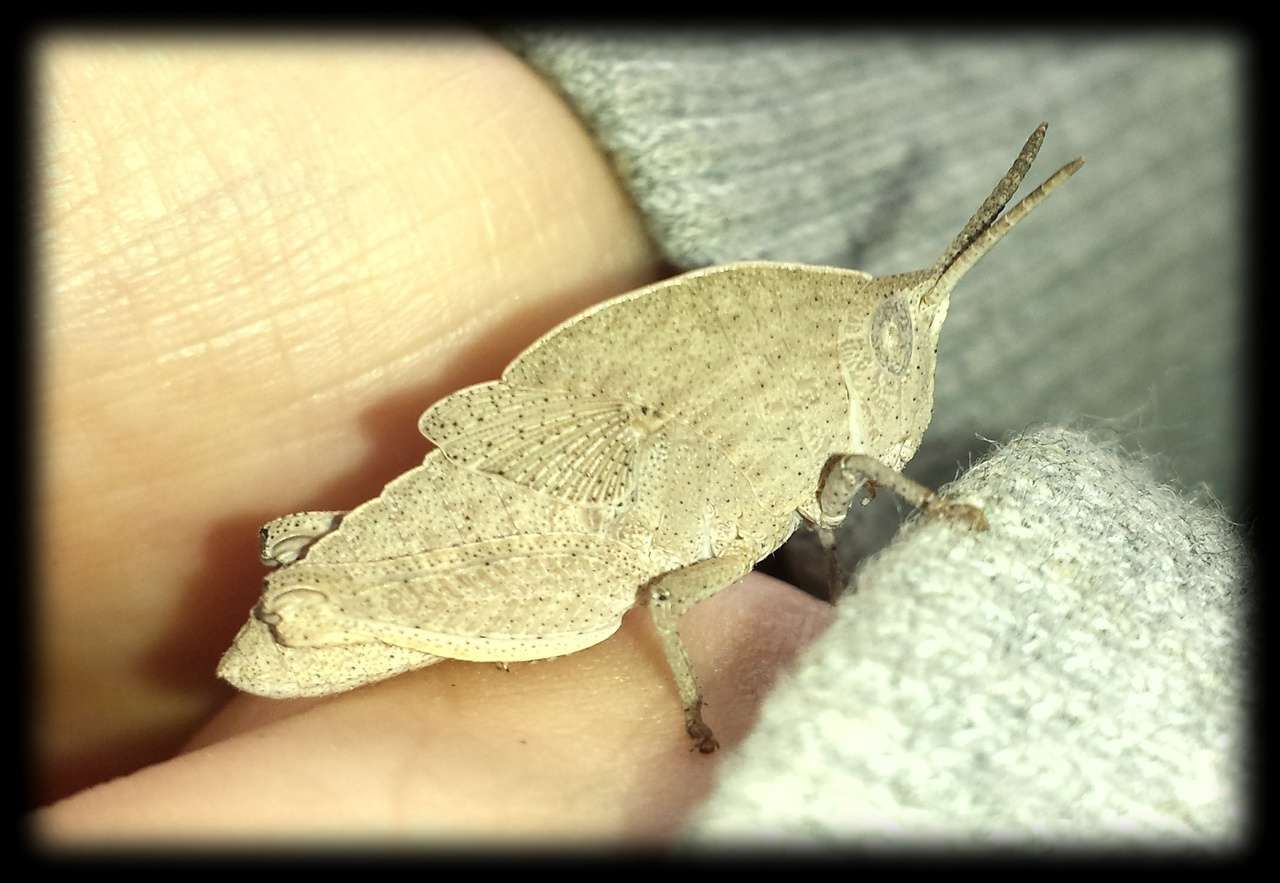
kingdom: Animalia
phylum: Arthropoda
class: Insecta
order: Orthoptera
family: Acrididae
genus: Goniaea
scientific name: Goniaea australasiae
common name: Gumleaf grasshopper
